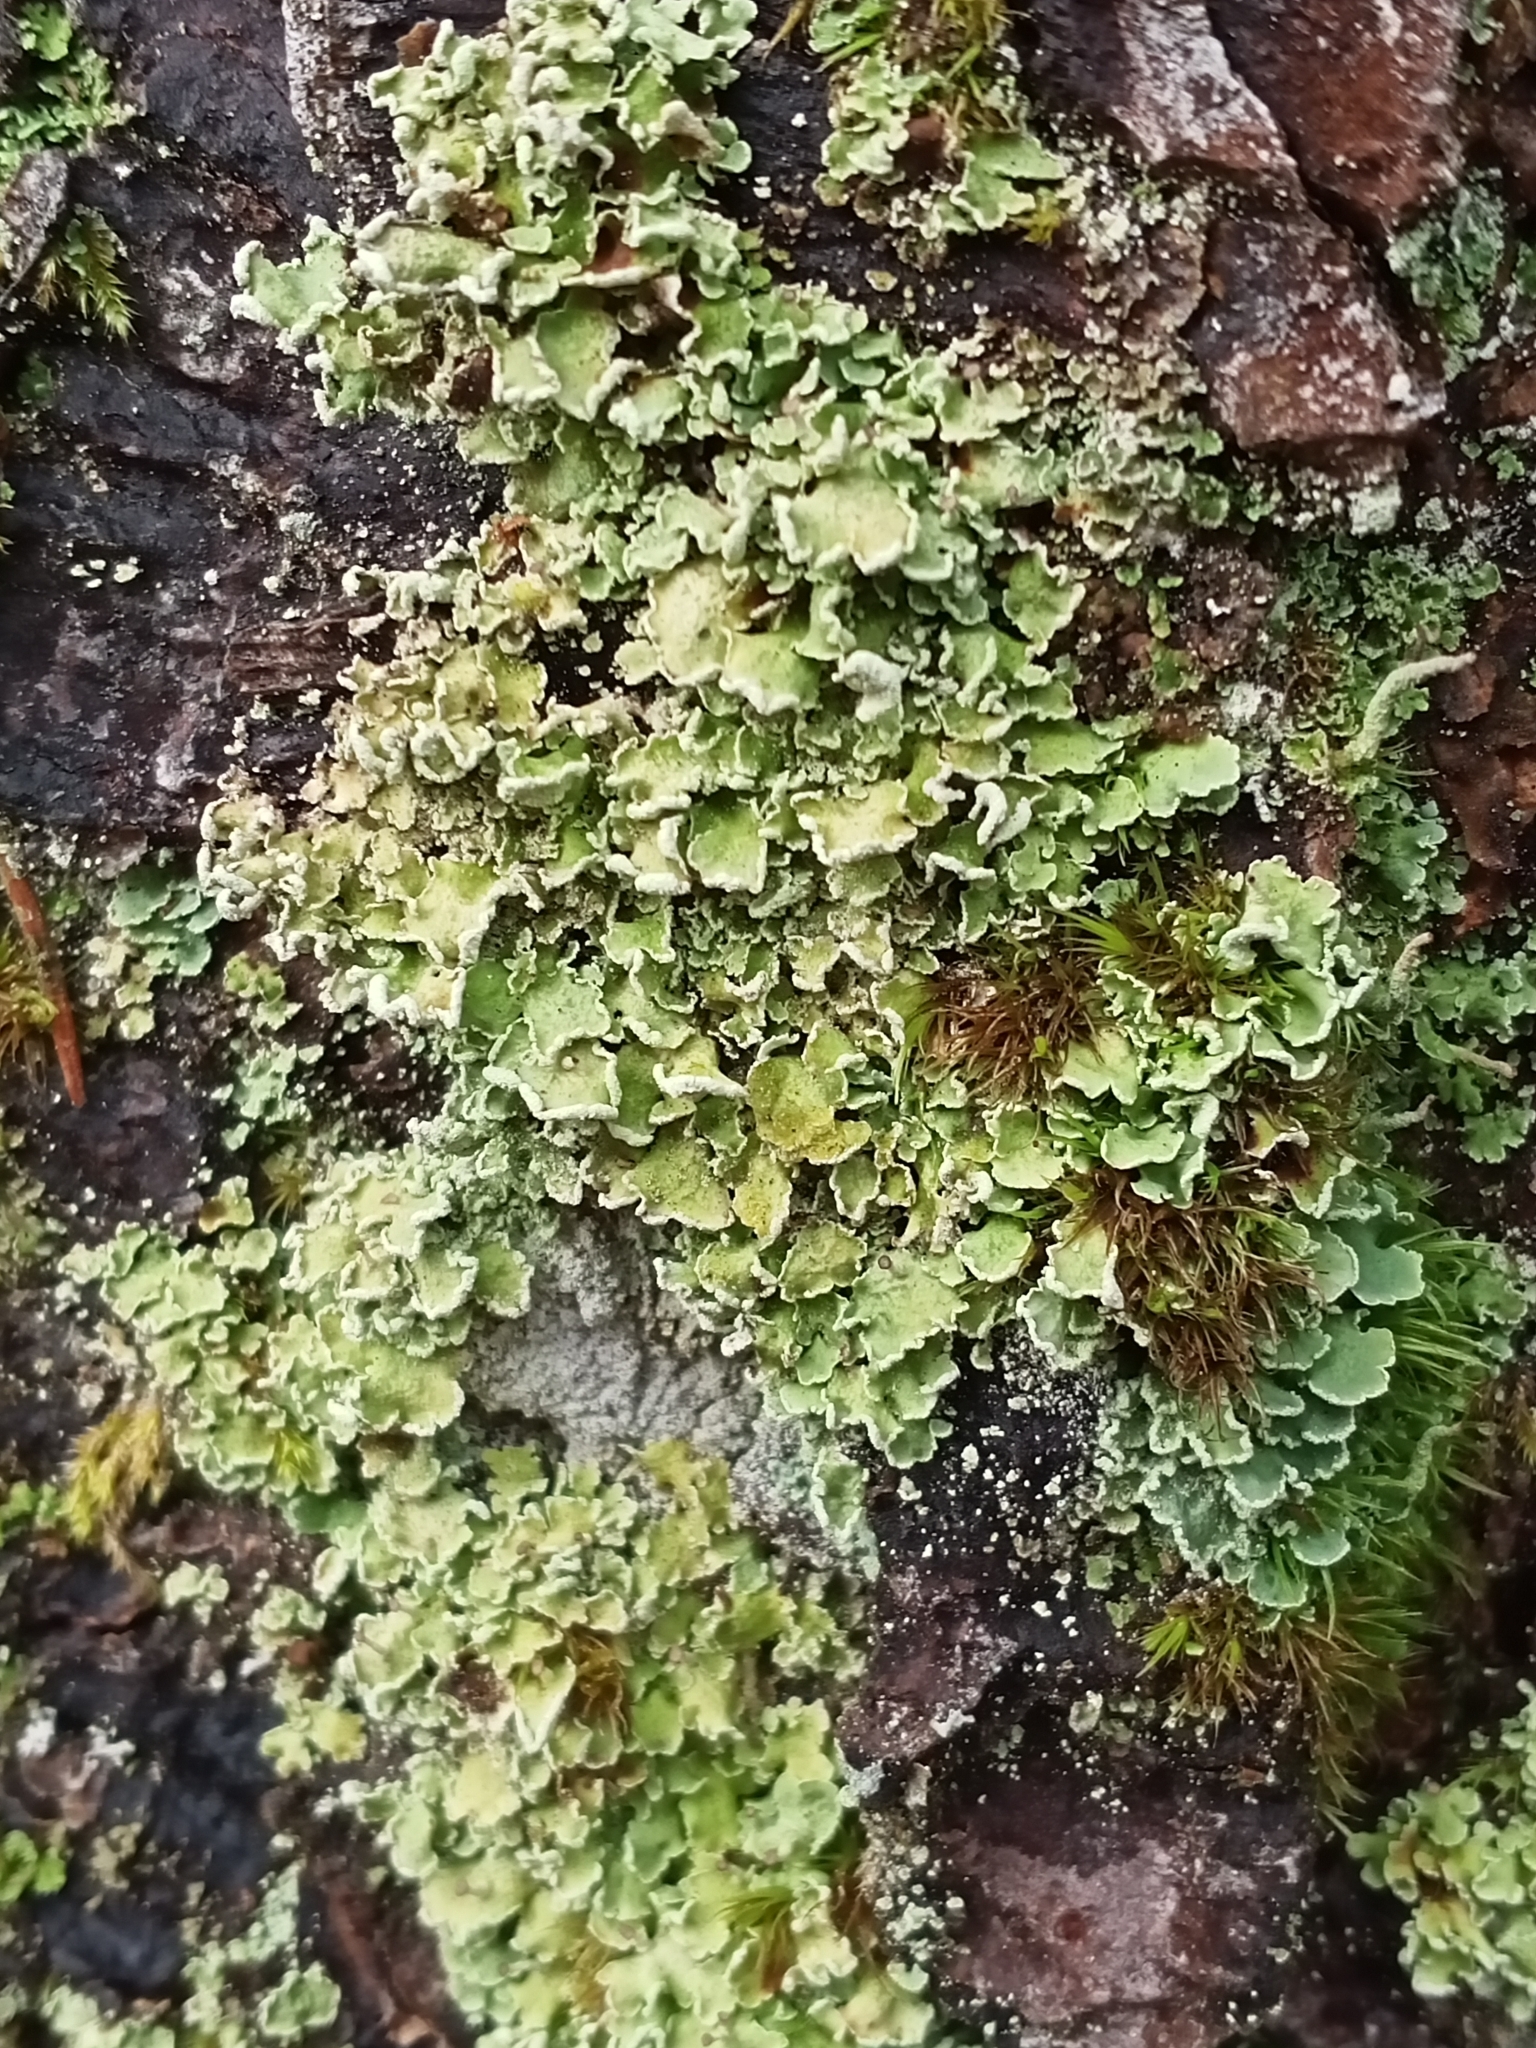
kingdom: Fungi
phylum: Ascomycota
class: Lecanoromycetes
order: Lecanorales
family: Cladoniaceae
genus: Cladonia
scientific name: Cladonia digitata
